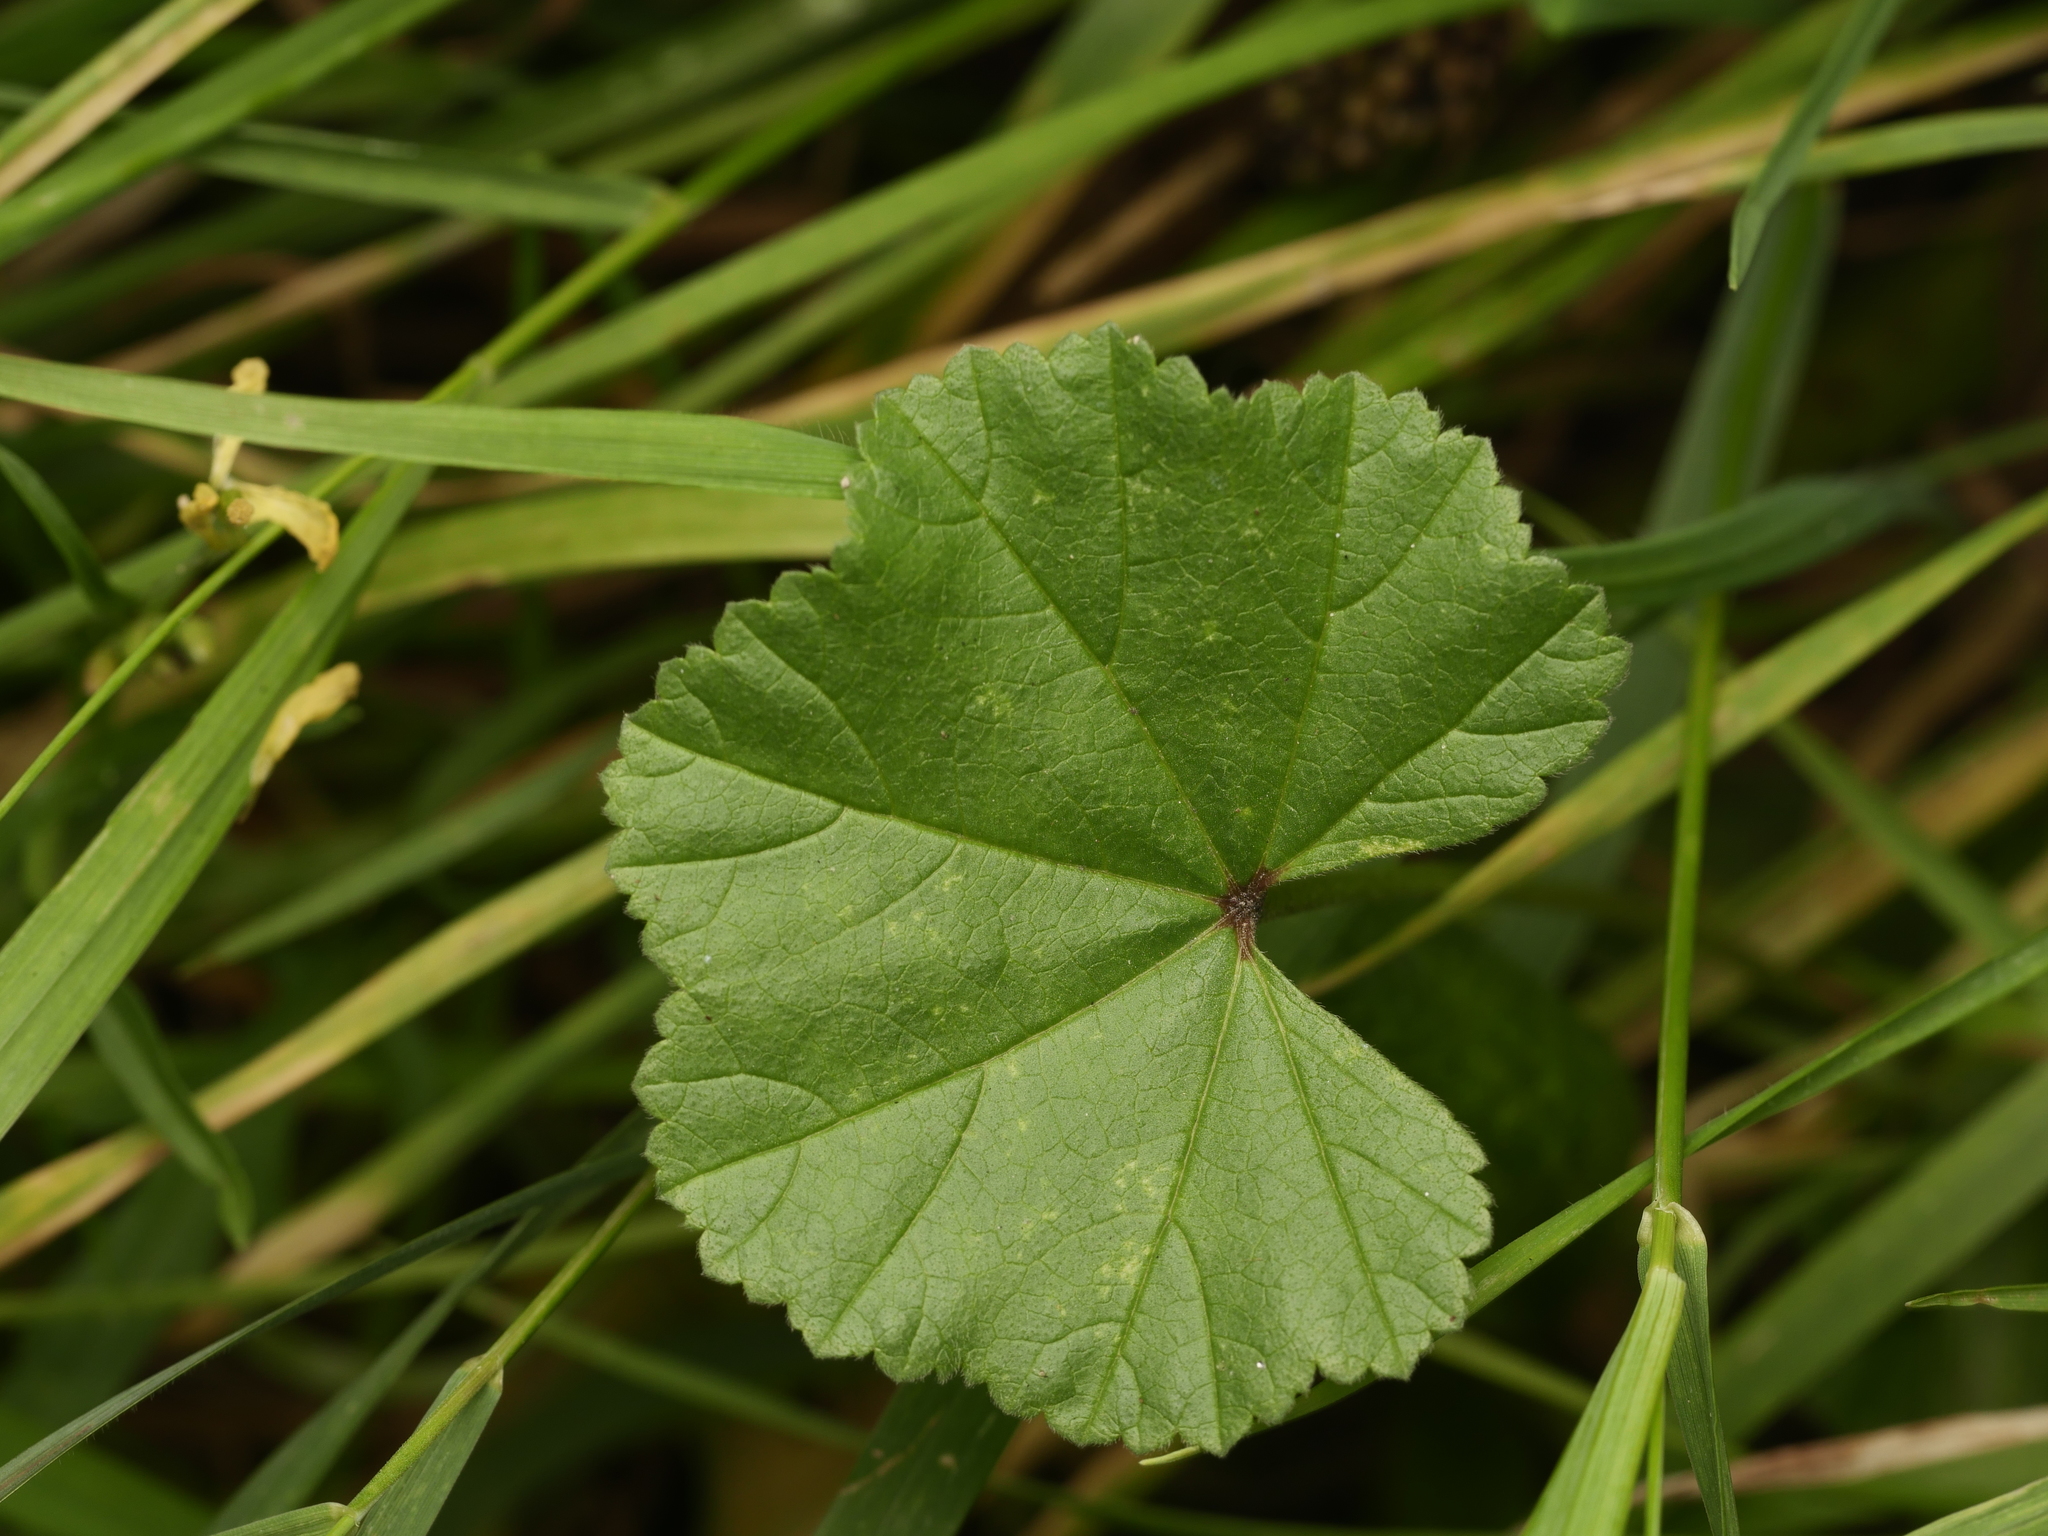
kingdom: Plantae
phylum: Tracheophyta
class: Magnoliopsida
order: Malvales
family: Malvaceae
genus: Malva
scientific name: Malva neglecta
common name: Common mallow
